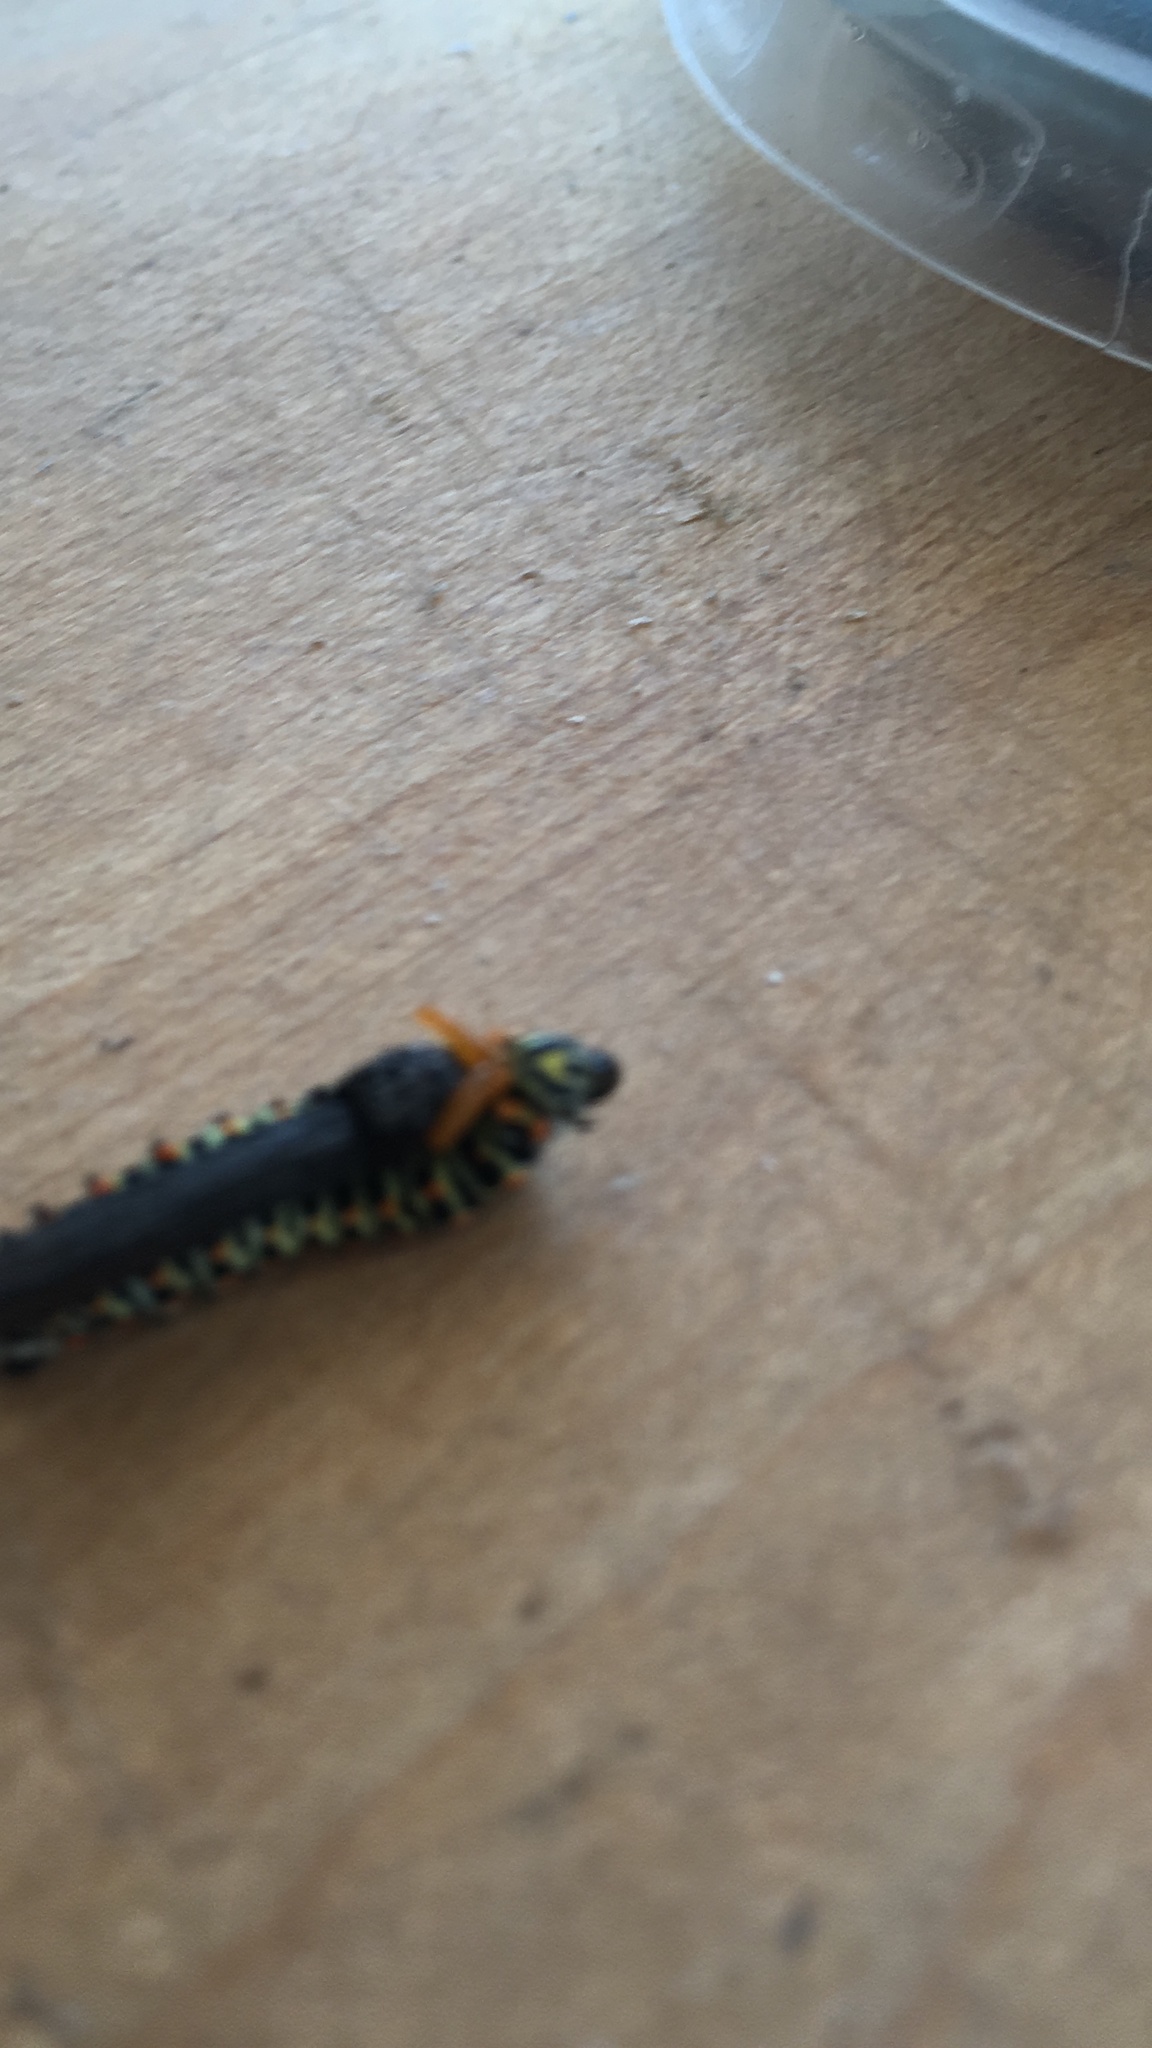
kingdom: Animalia
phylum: Arthropoda
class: Insecta
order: Lepidoptera
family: Papilionidae
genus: Papilio
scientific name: Papilio machaon
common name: Swallowtail
